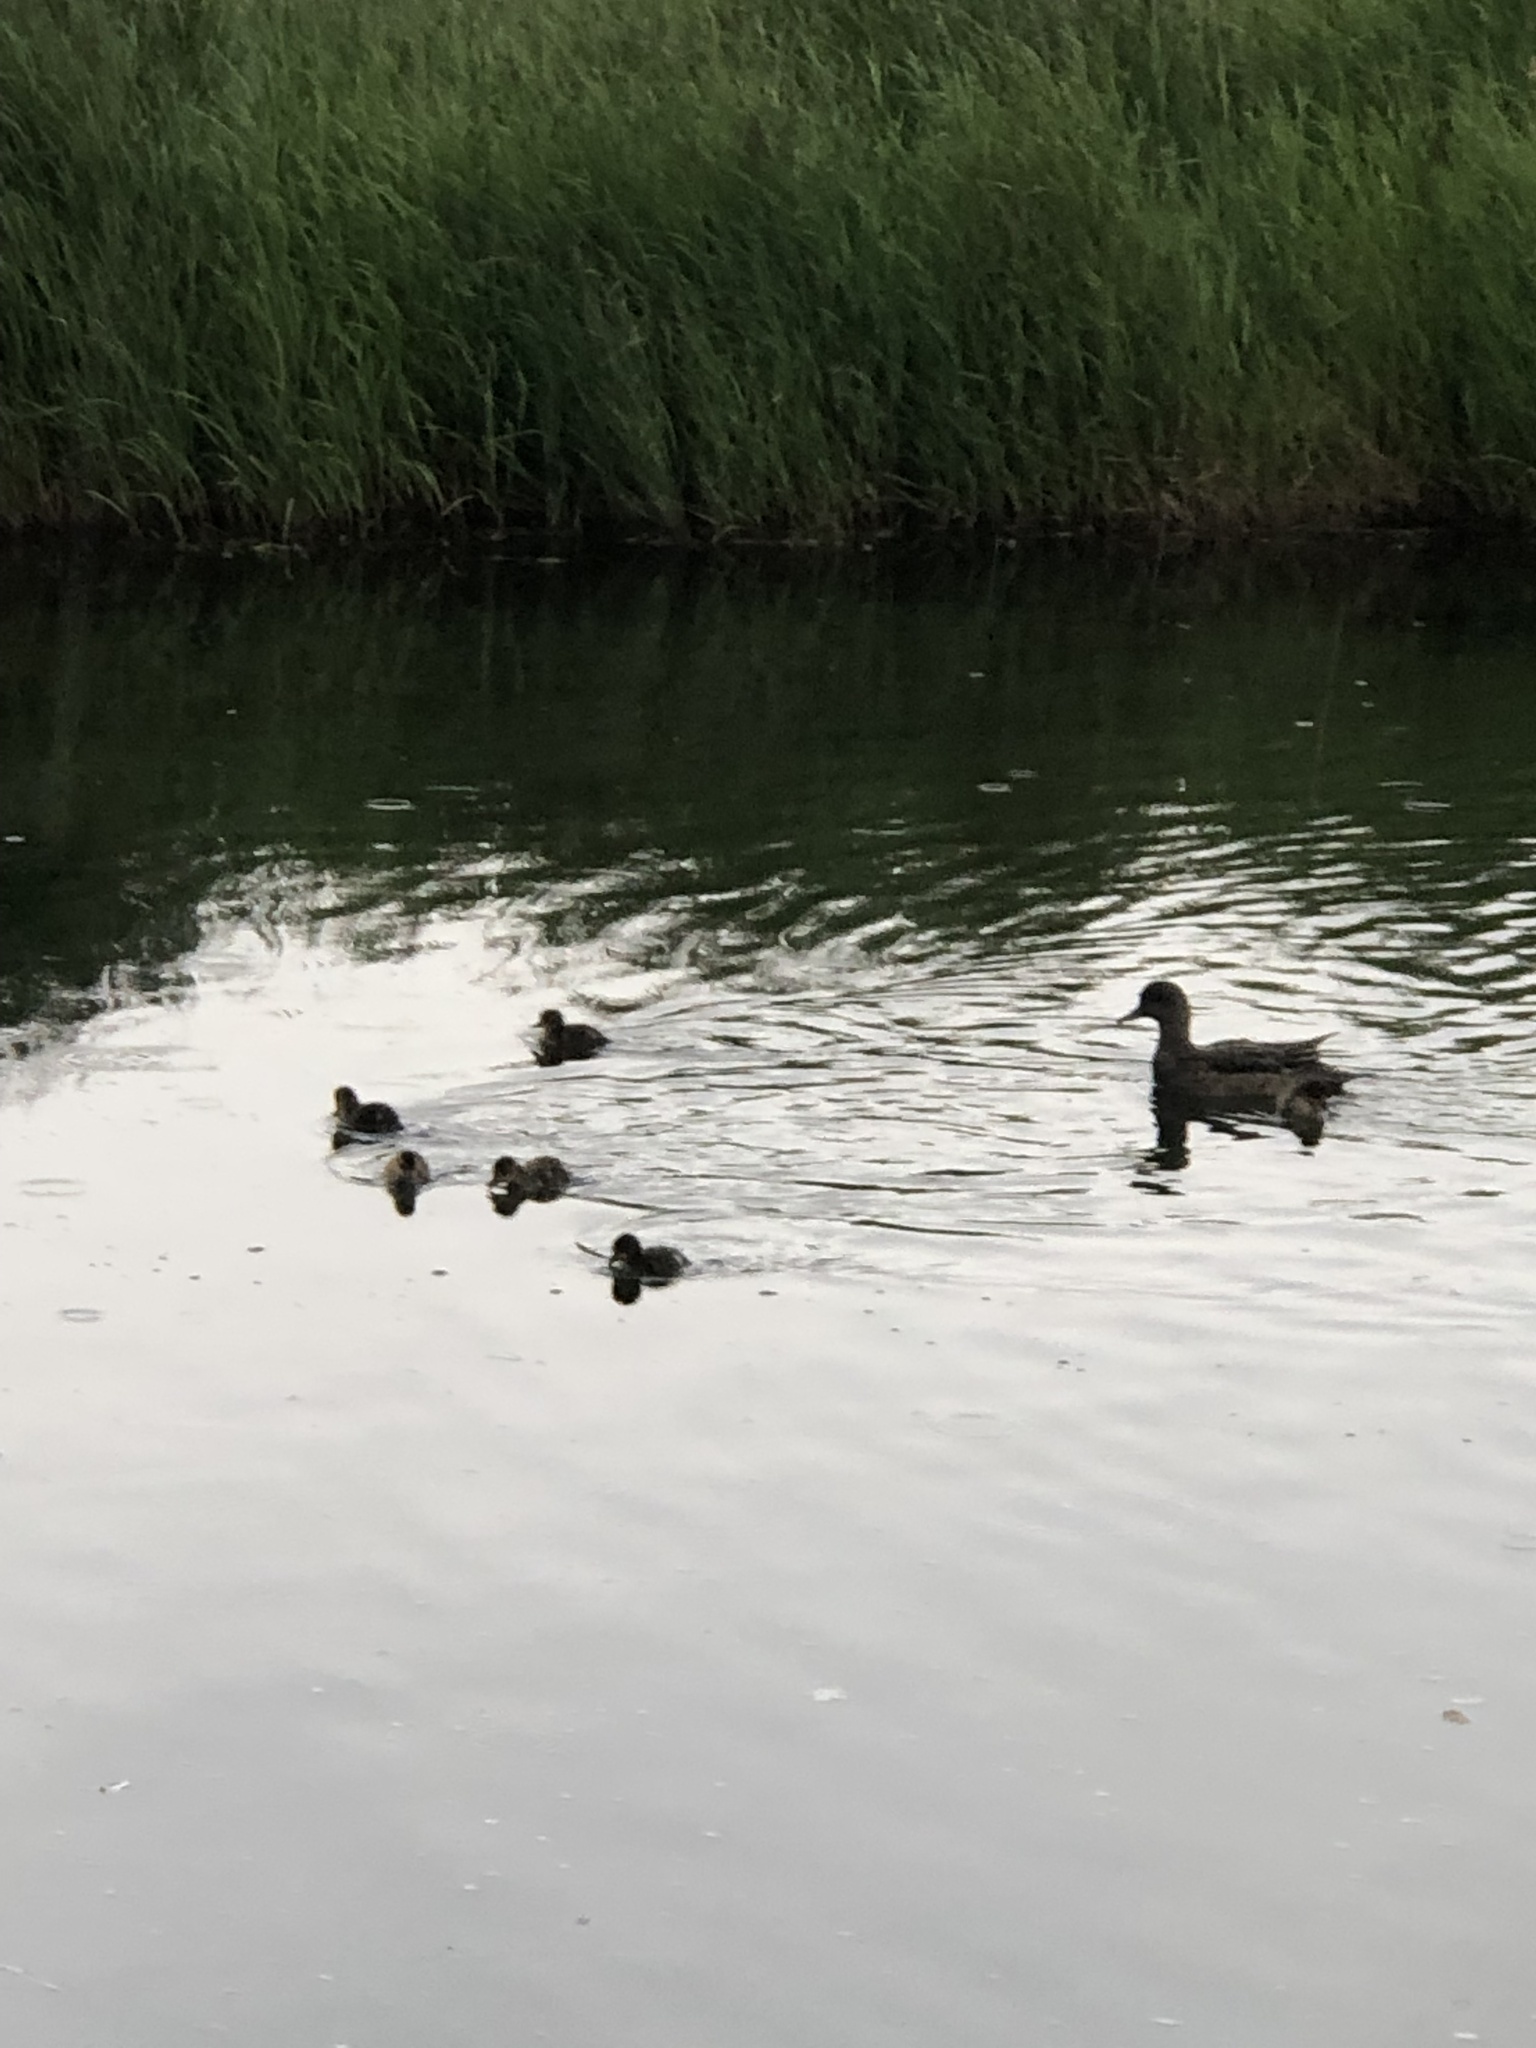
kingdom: Animalia
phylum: Chordata
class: Aves
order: Anseriformes
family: Anatidae
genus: Mareca
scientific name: Mareca americana
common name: American wigeon
